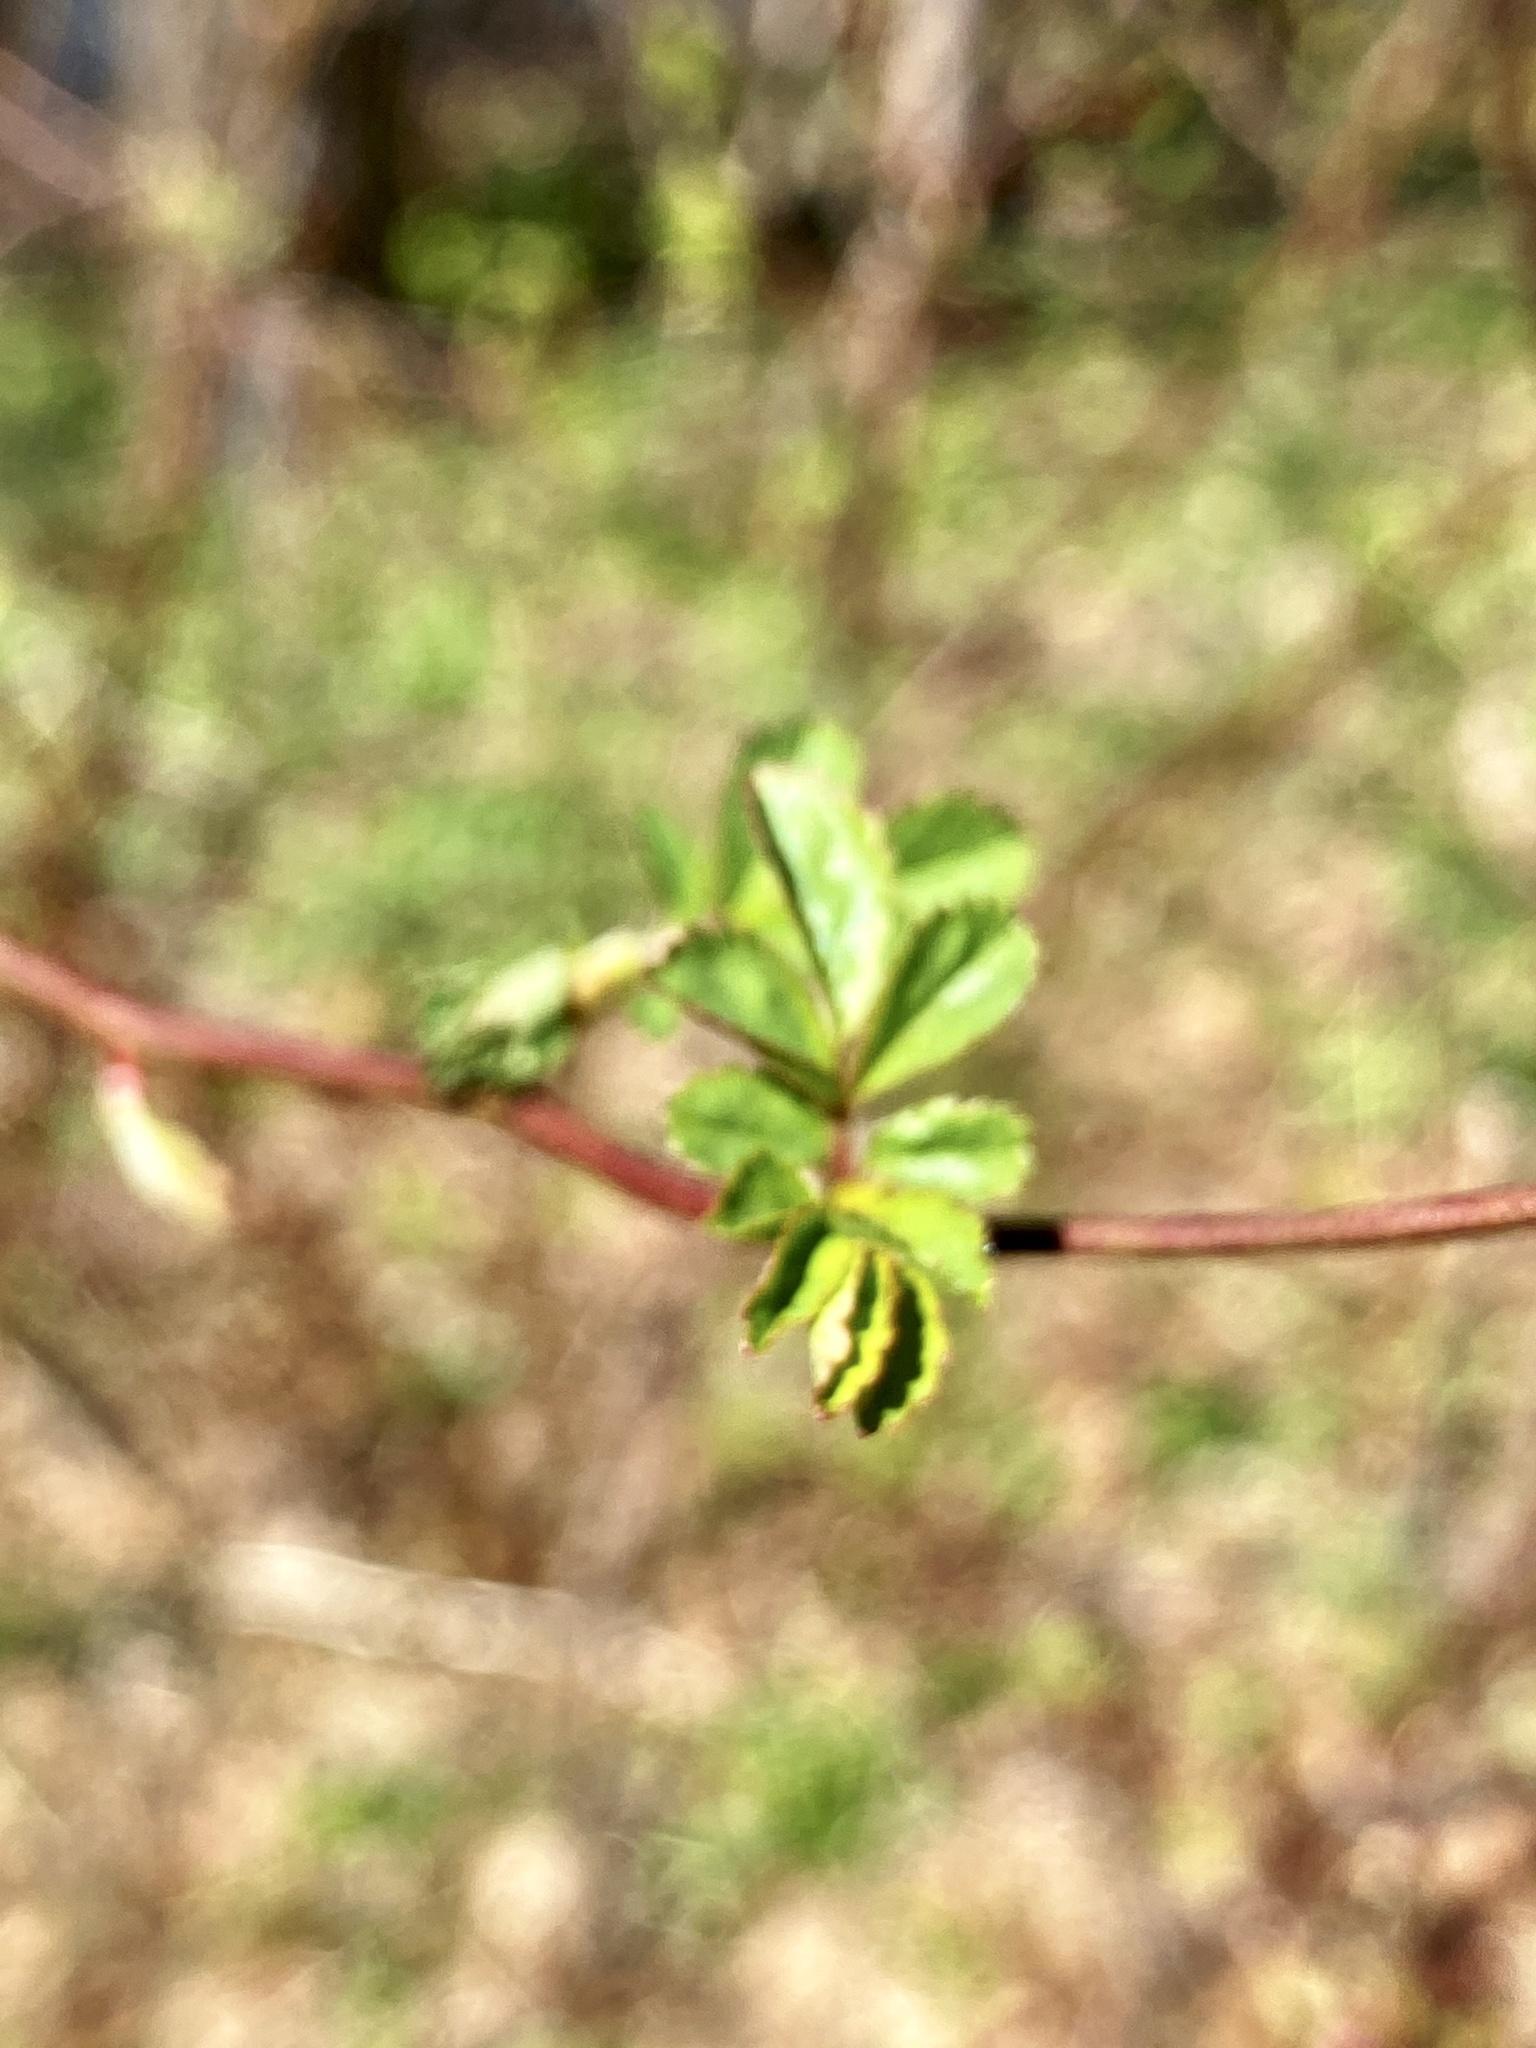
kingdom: Plantae
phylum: Tracheophyta
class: Magnoliopsida
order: Rosales
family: Rosaceae
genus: Rosa
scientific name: Rosa multiflora
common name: Multiflora rose
